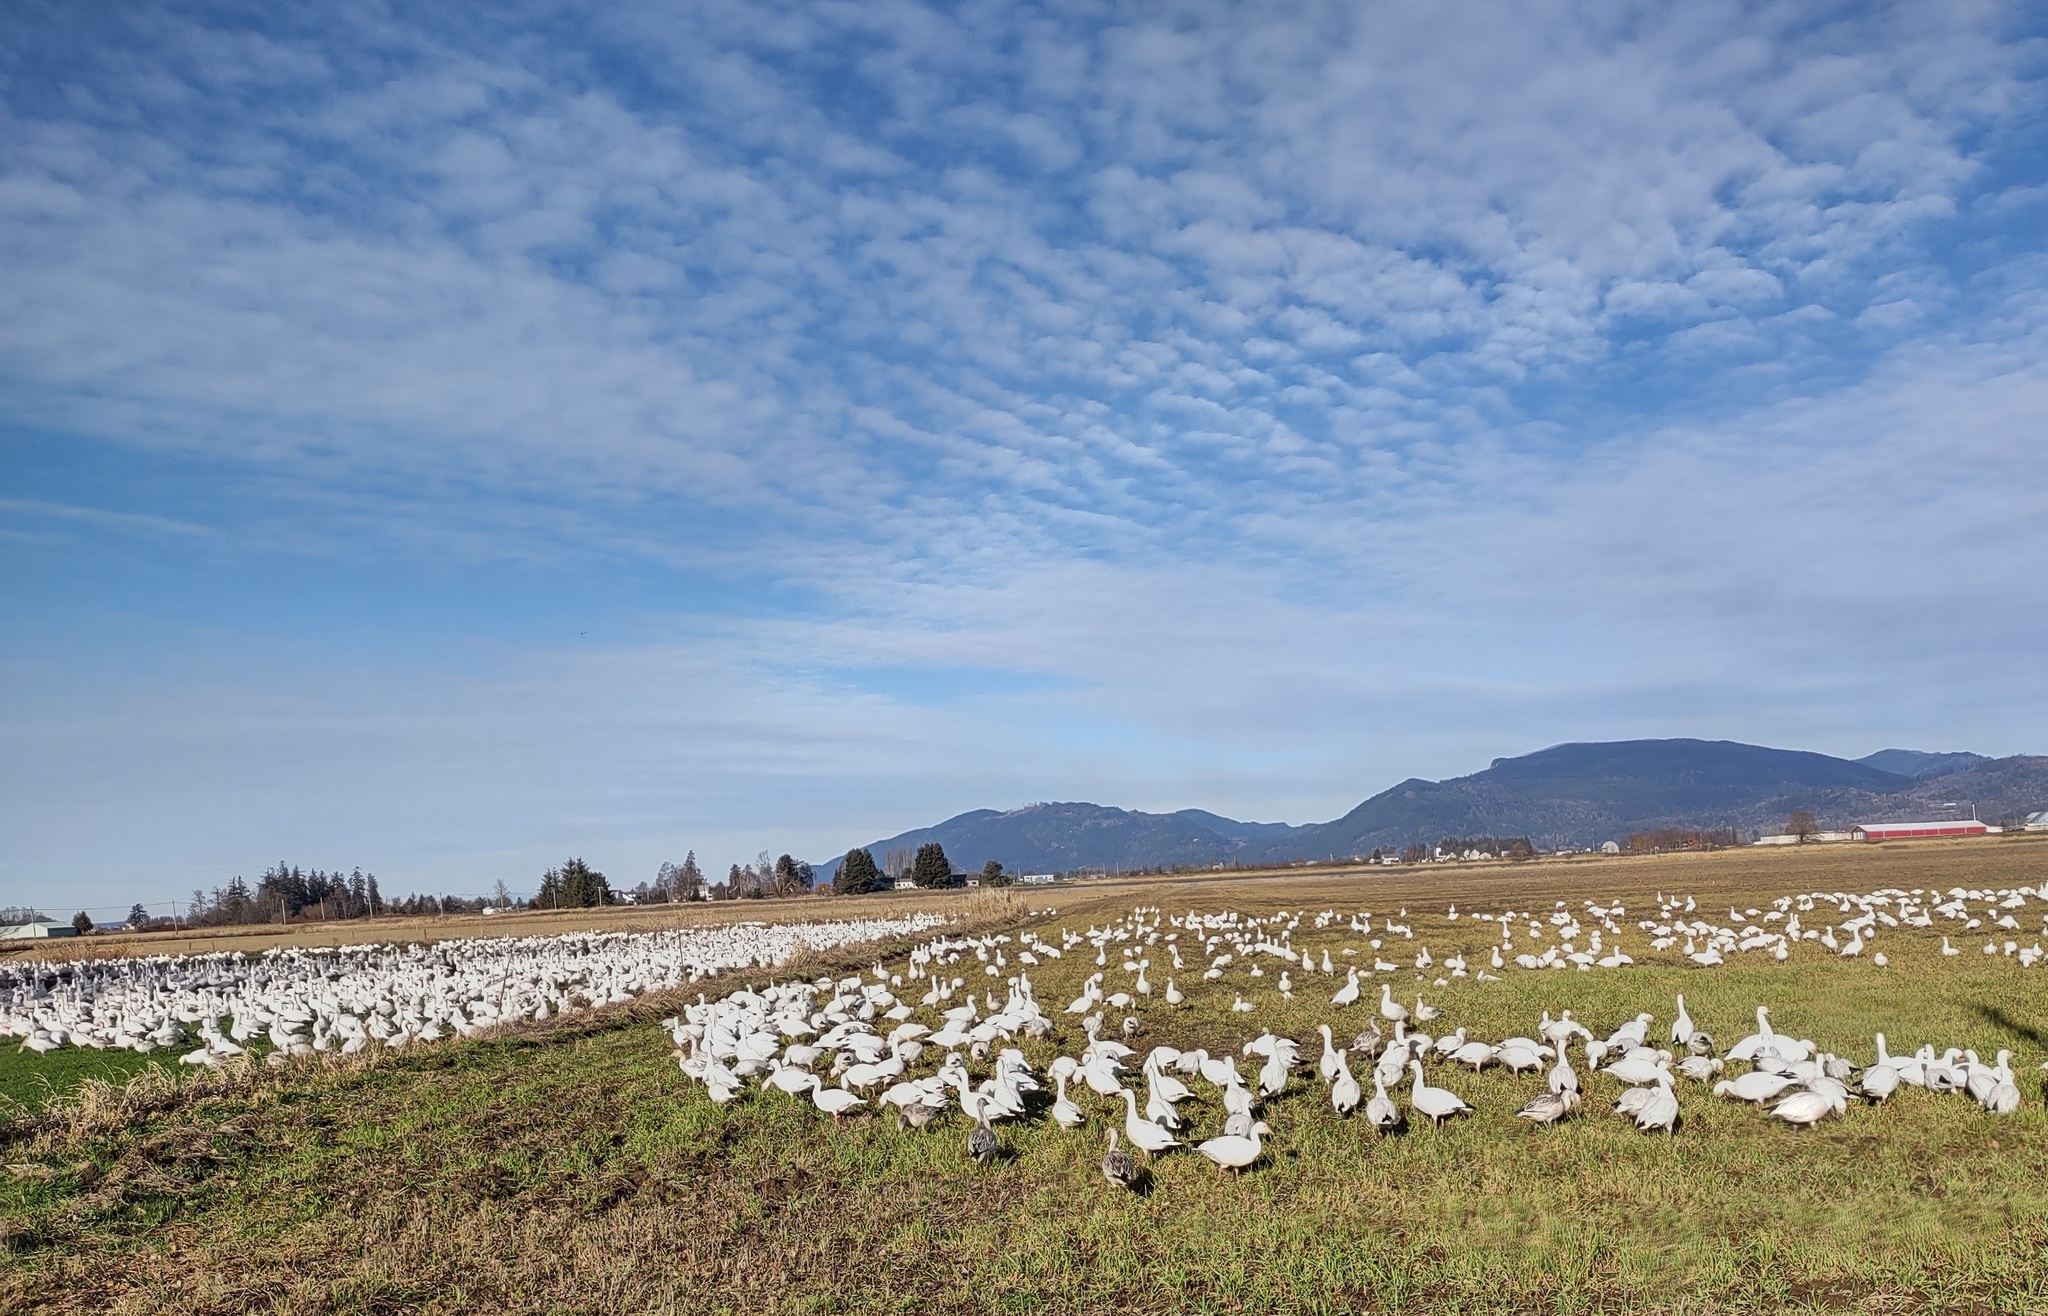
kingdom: Animalia
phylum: Chordata
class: Aves
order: Anseriformes
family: Anatidae
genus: Anser
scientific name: Anser caerulescens
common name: Snow goose
